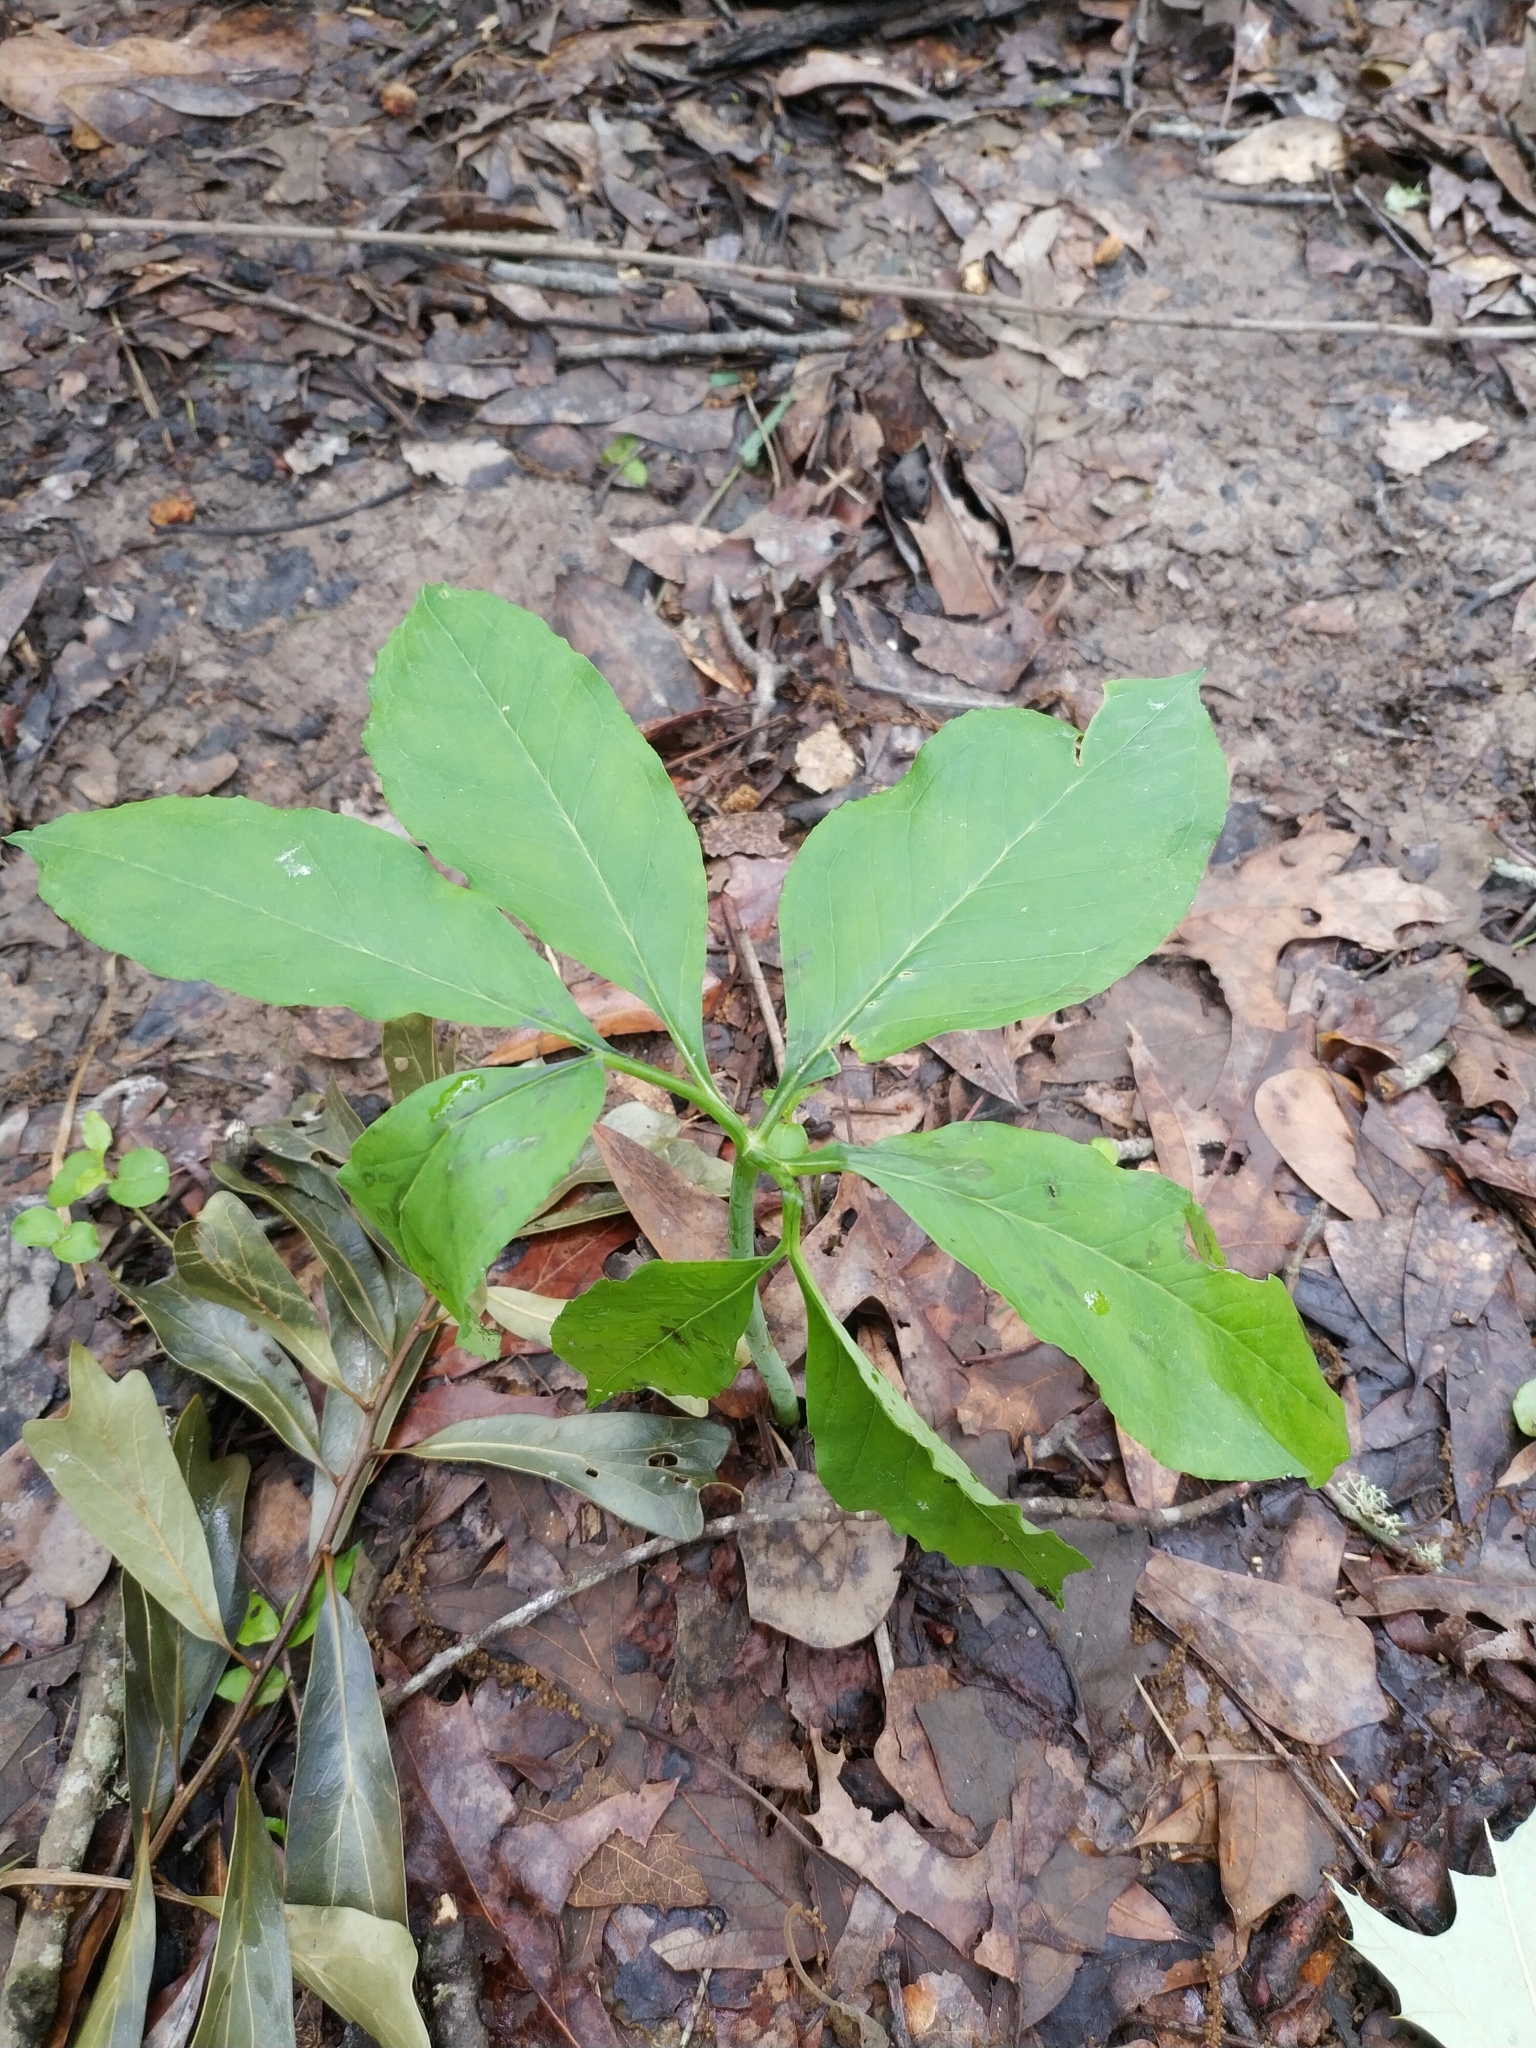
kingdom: Plantae
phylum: Tracheophyta
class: Liliopsida
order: Alismatales
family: Araceae
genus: Arisaema
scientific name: Arisaema dracontium
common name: Dragon-arum
